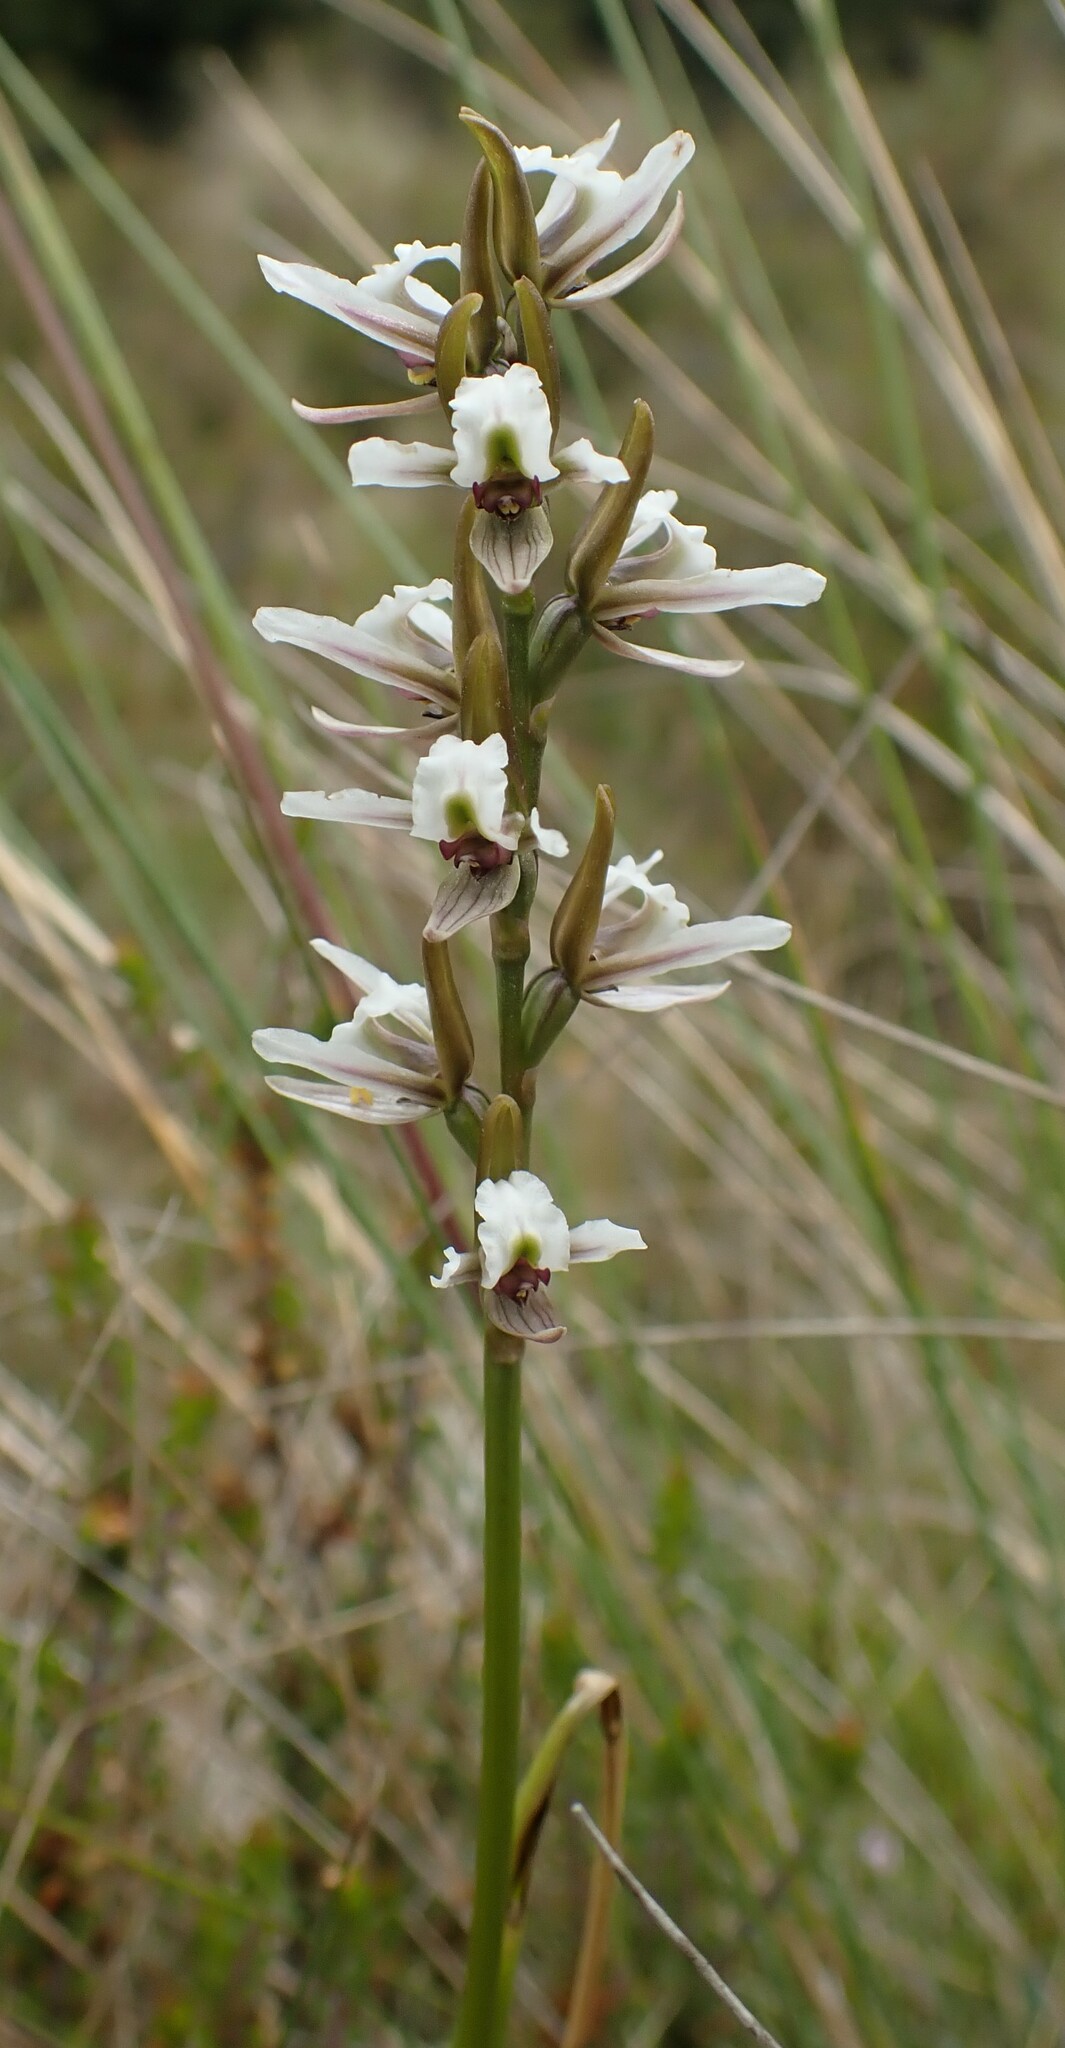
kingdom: Plantae
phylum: Tracheophyta
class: Liliopsida
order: Asparagales
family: Orchidaceae
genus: Prasophyllum
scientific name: Prasophyllum mimulum
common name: Highland leek orchid
